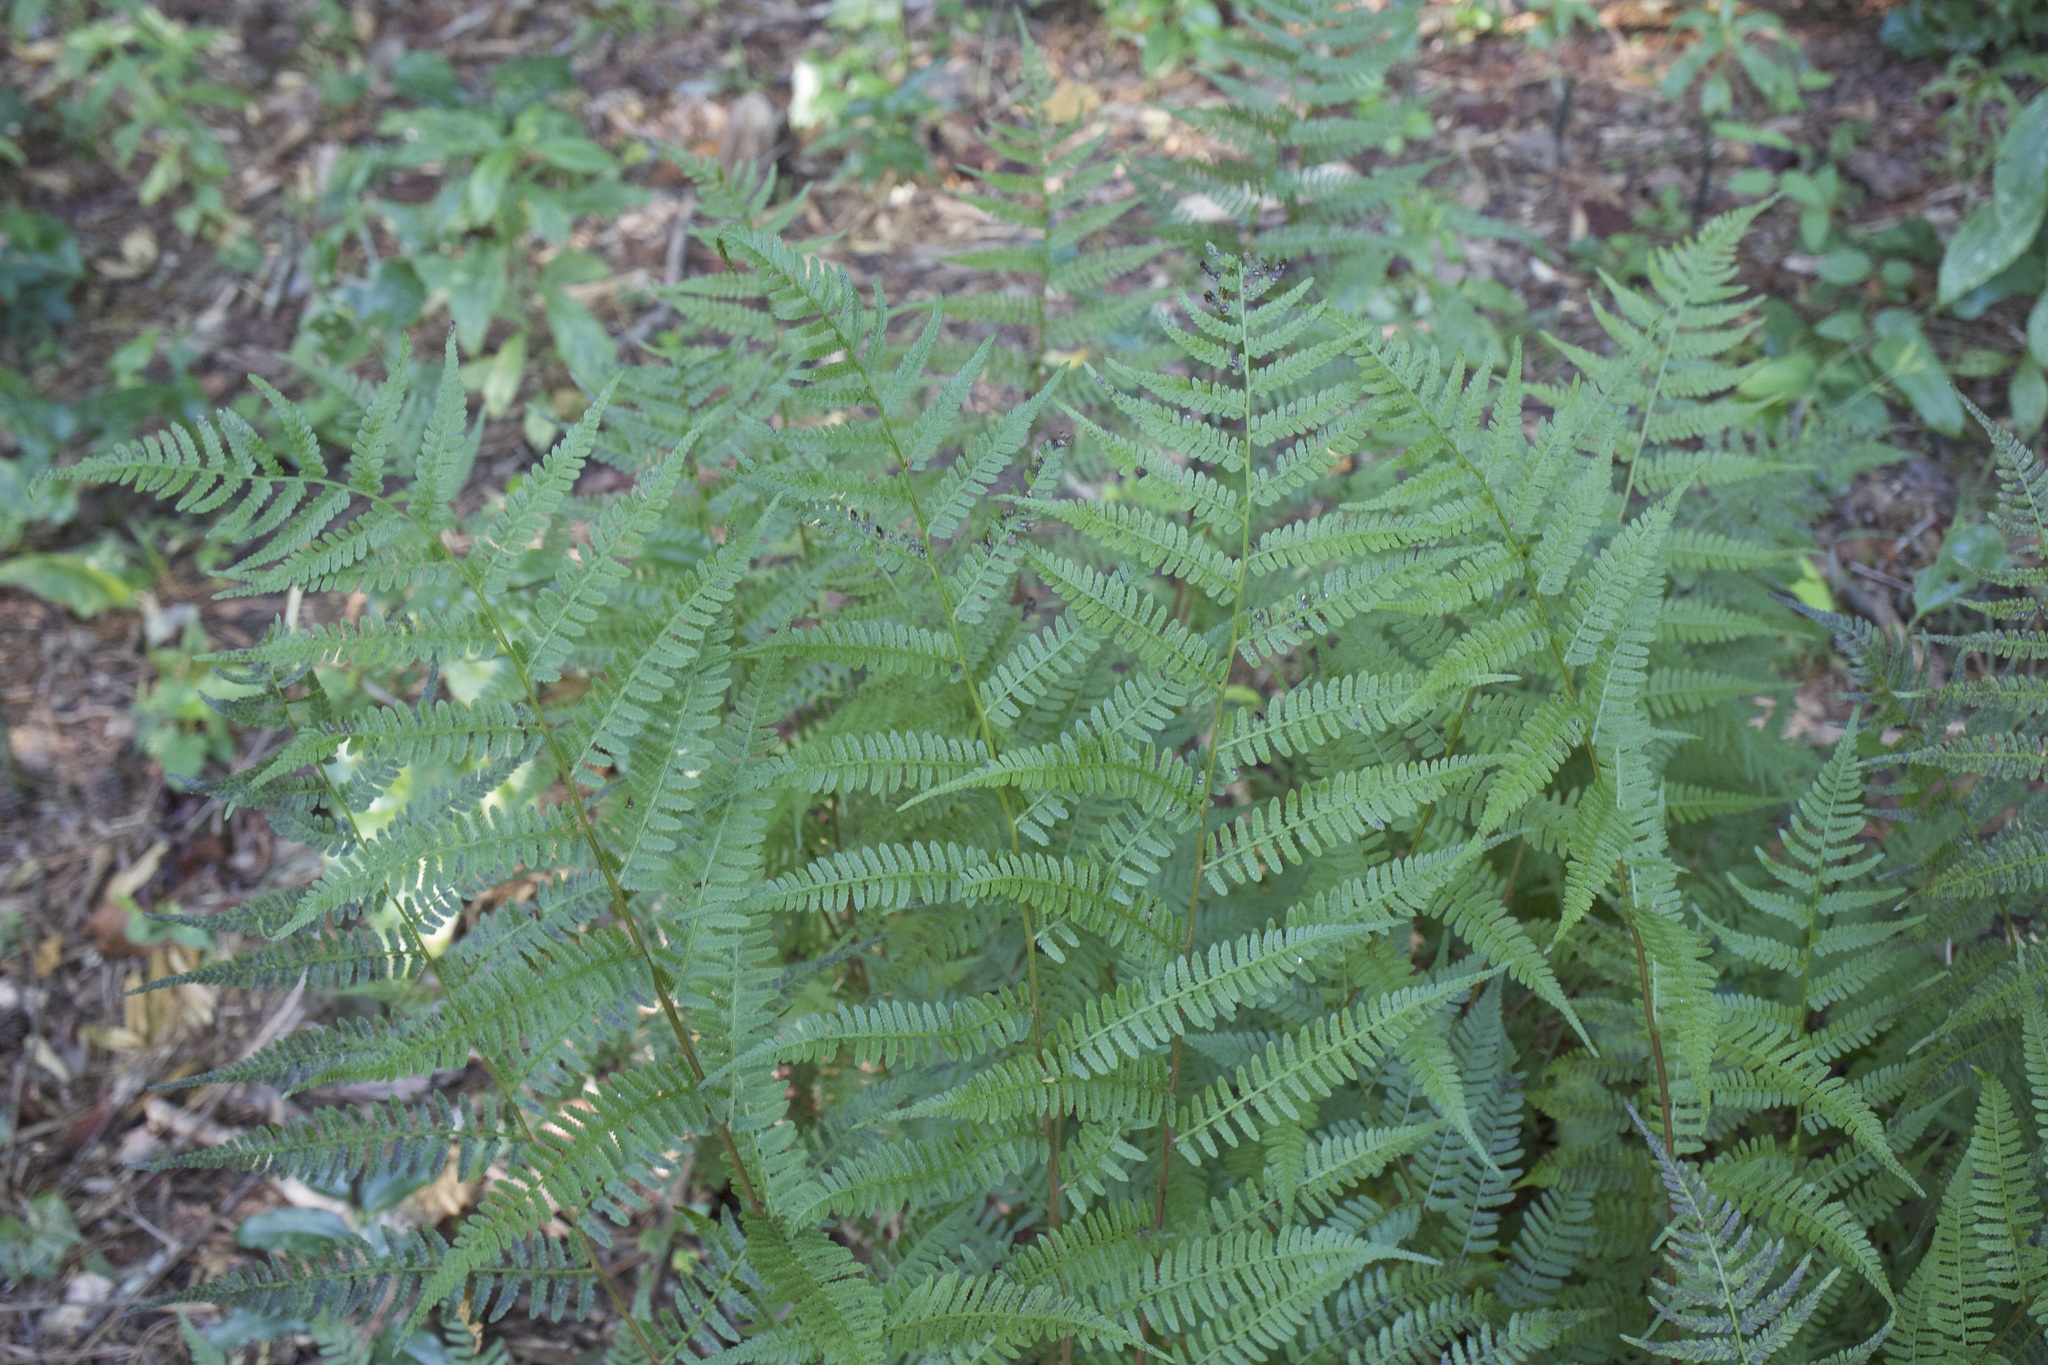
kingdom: Plantae
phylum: Tracheophyta
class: Polypodiopsida
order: Polypodiales
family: Athyriaceae
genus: Athyrium
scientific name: Athyrium asplenioides
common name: Southern lady fern
